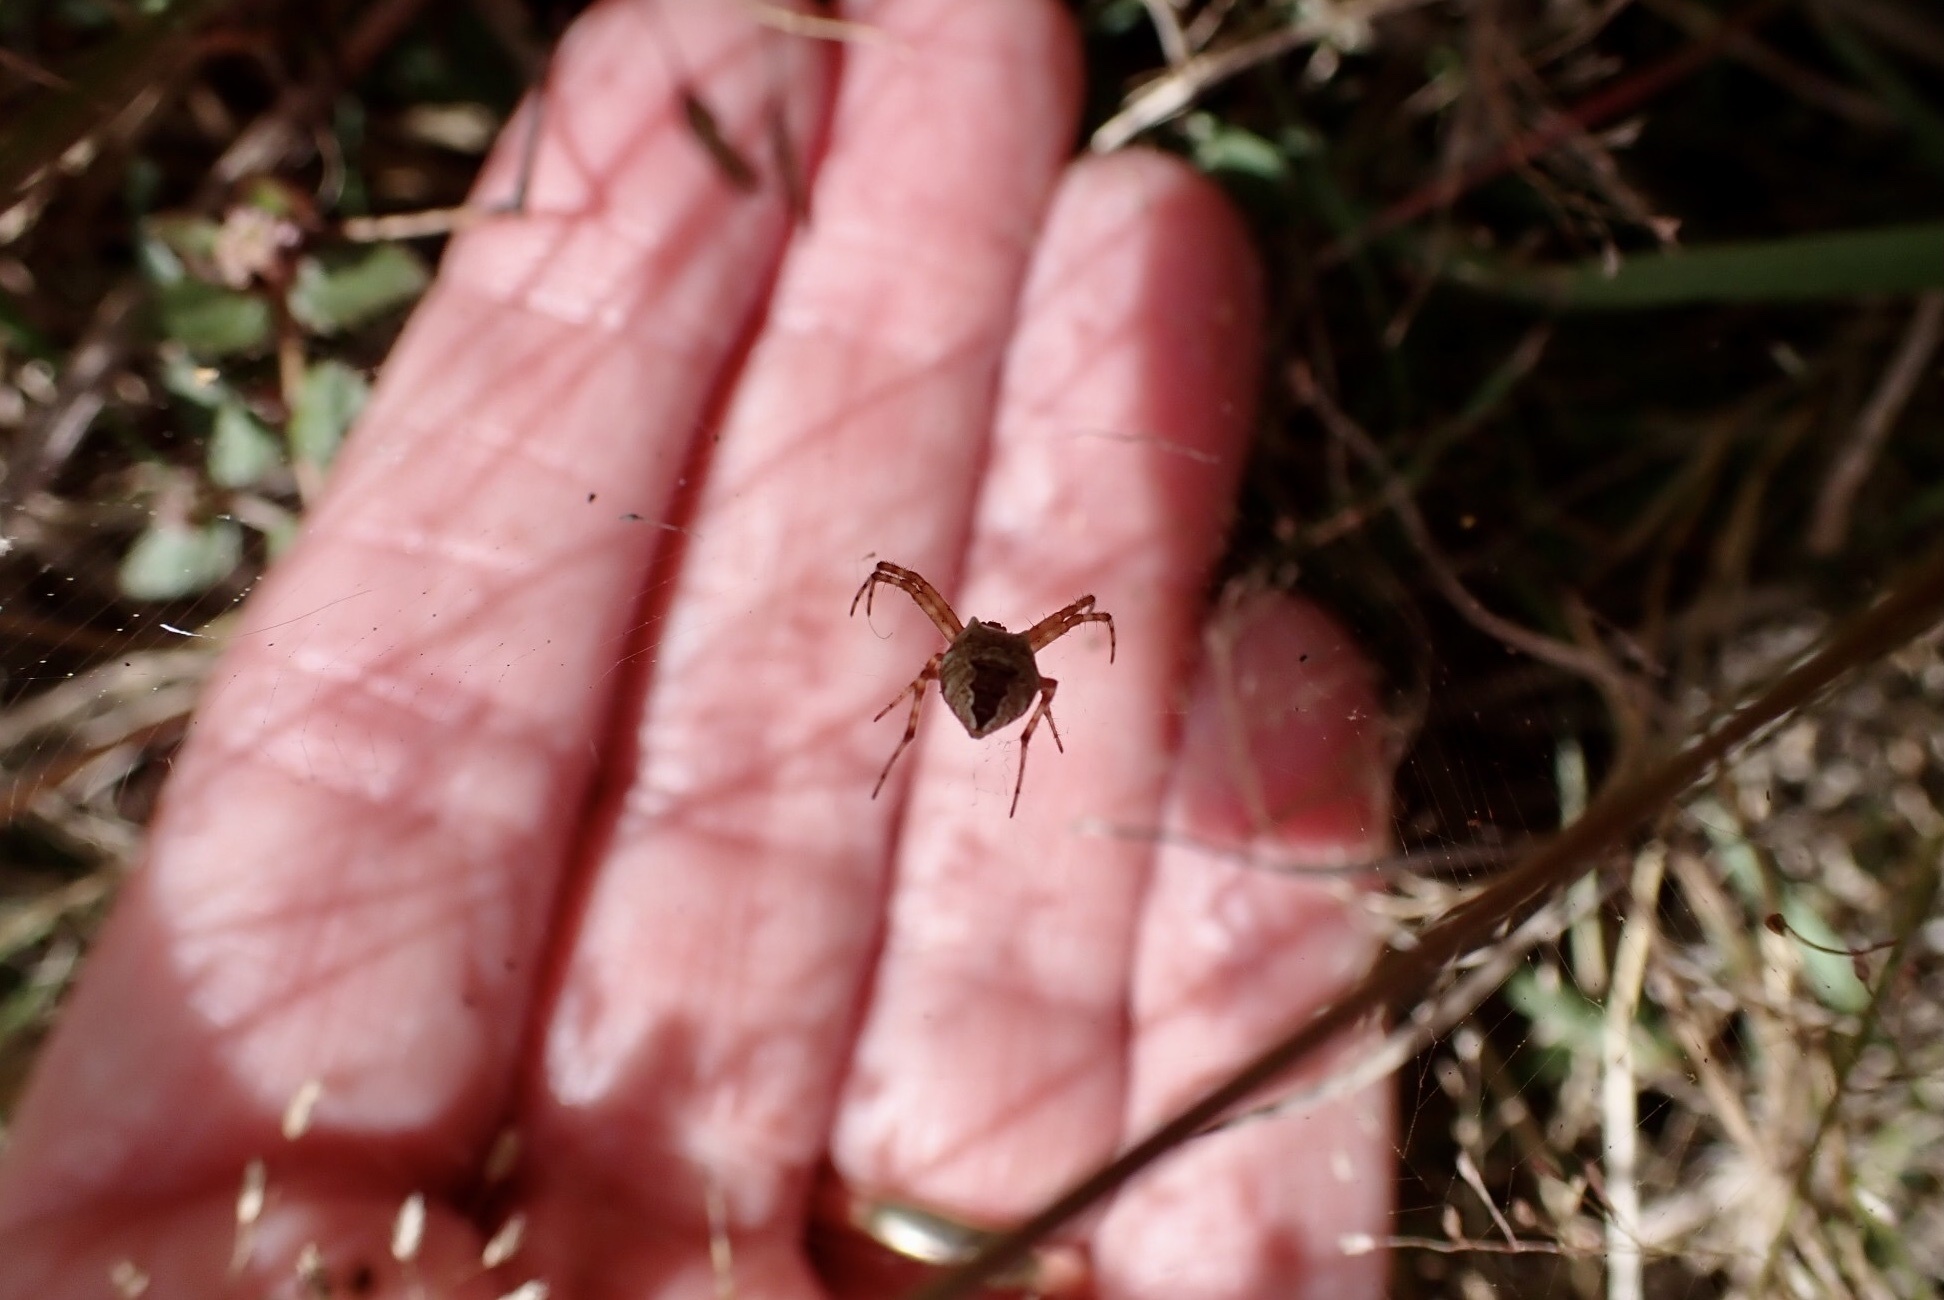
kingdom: Animalia
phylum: Arthropoda
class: Arachnida
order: Araneae
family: Araneidae
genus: Gea
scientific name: Gea heptagon
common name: Orb weavers
